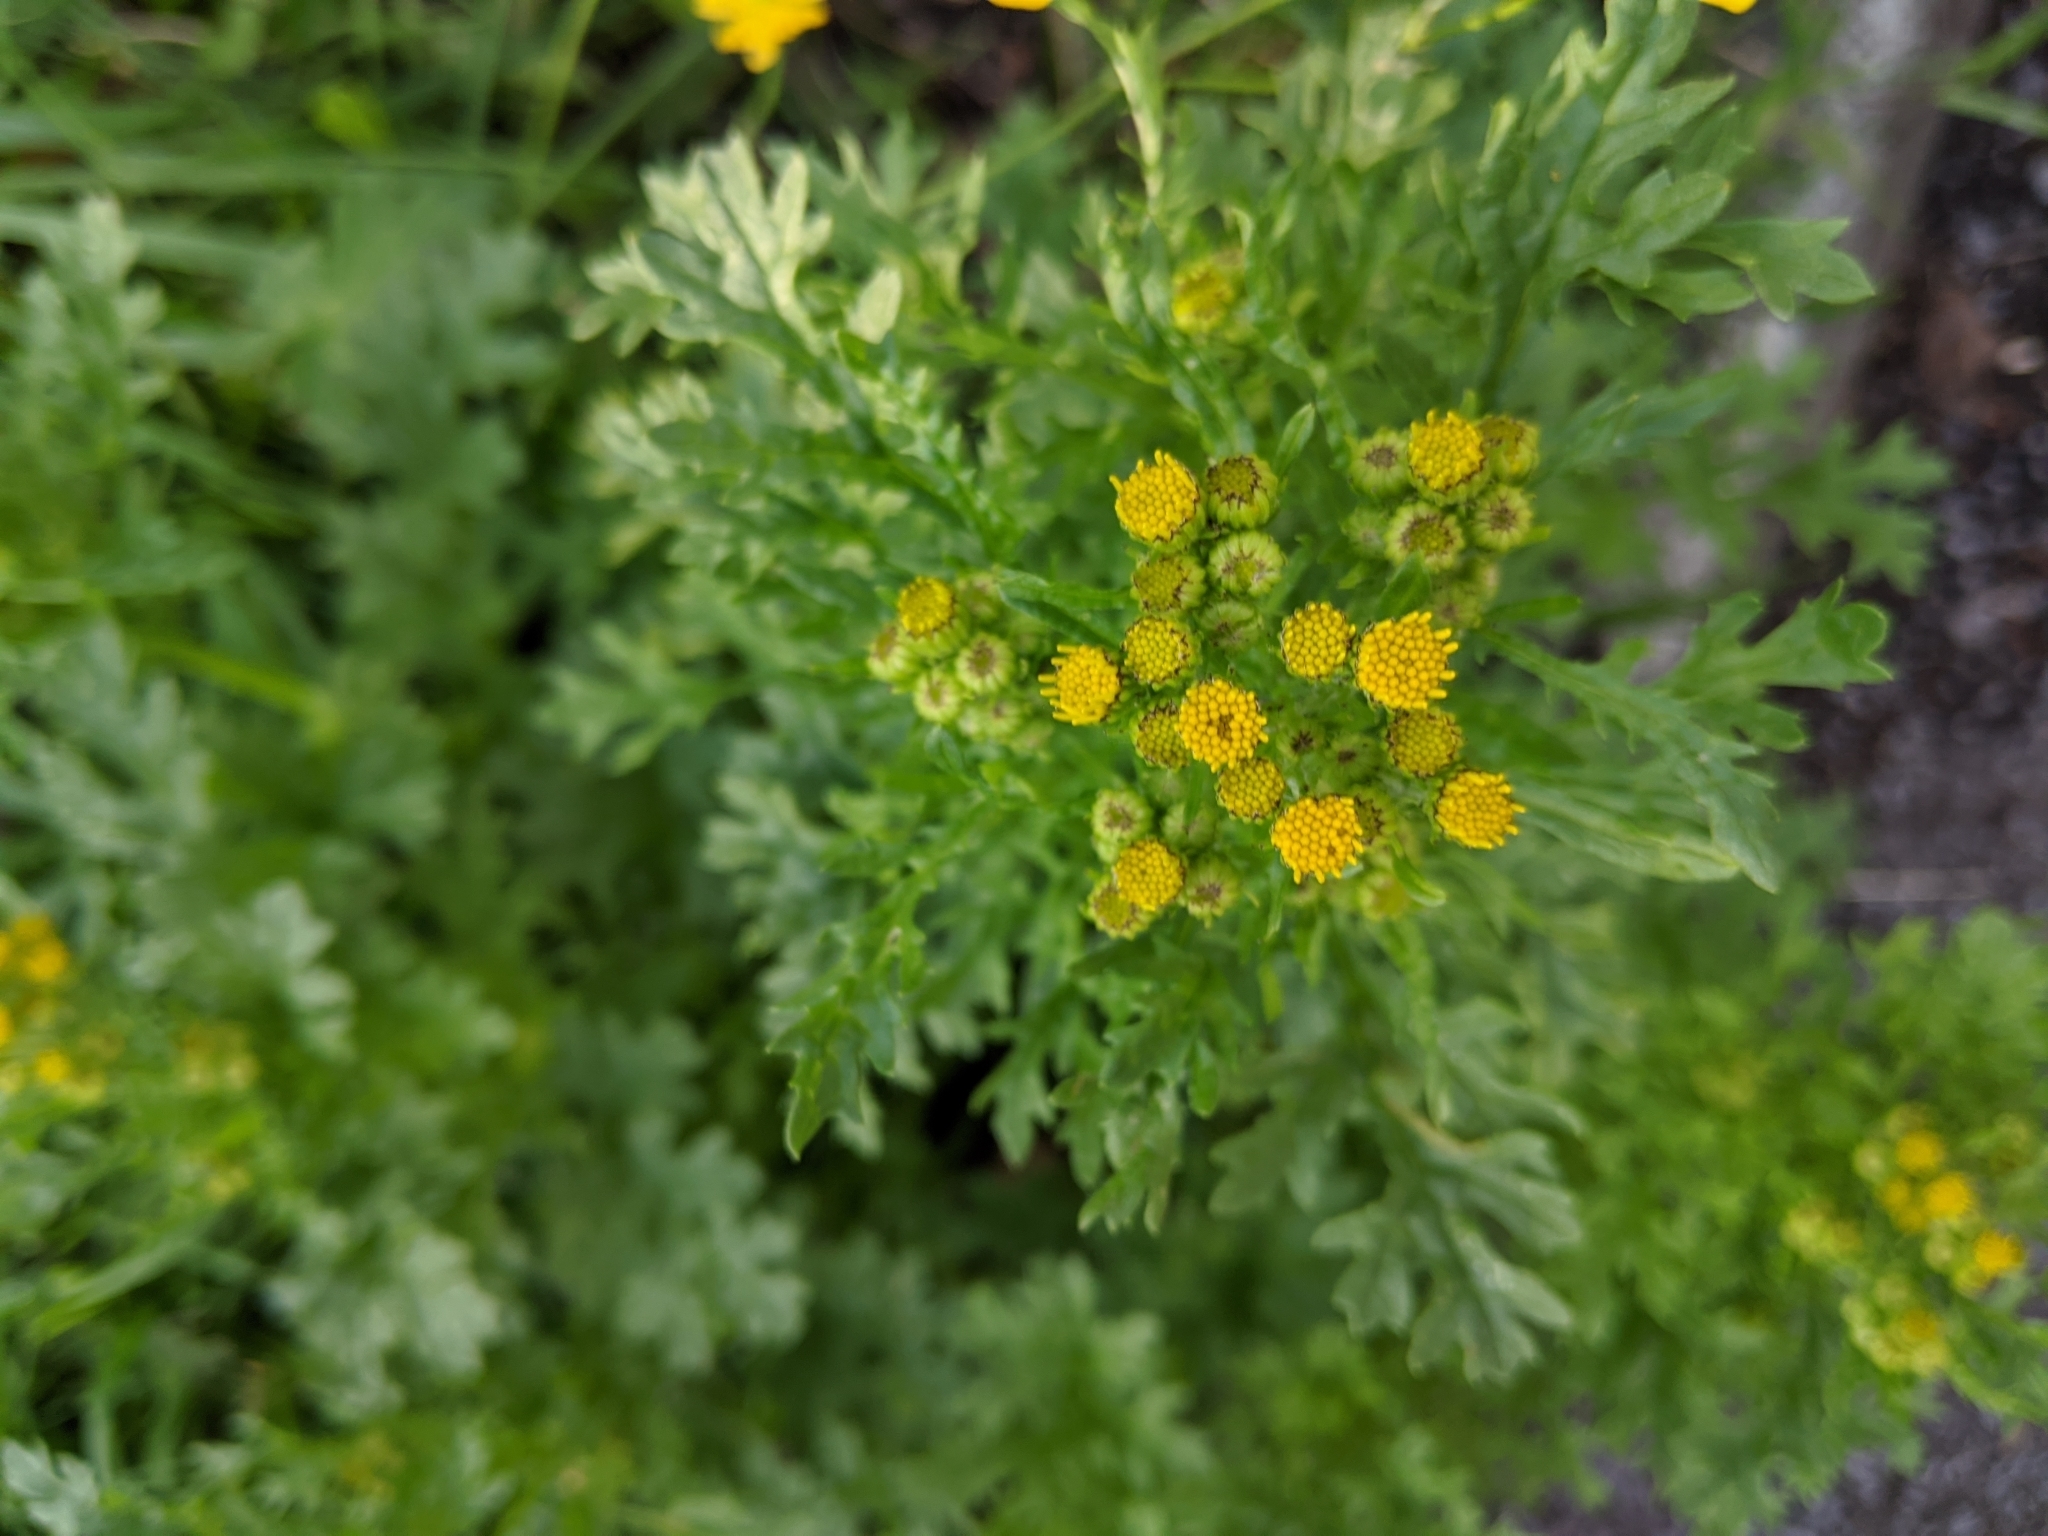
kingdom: Plantae
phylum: Tracheophyta
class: Magnoliopsida
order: Asterales
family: Asteraceae
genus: Jacobaea
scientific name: Jacobaea vulgaris
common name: Stinking willie
